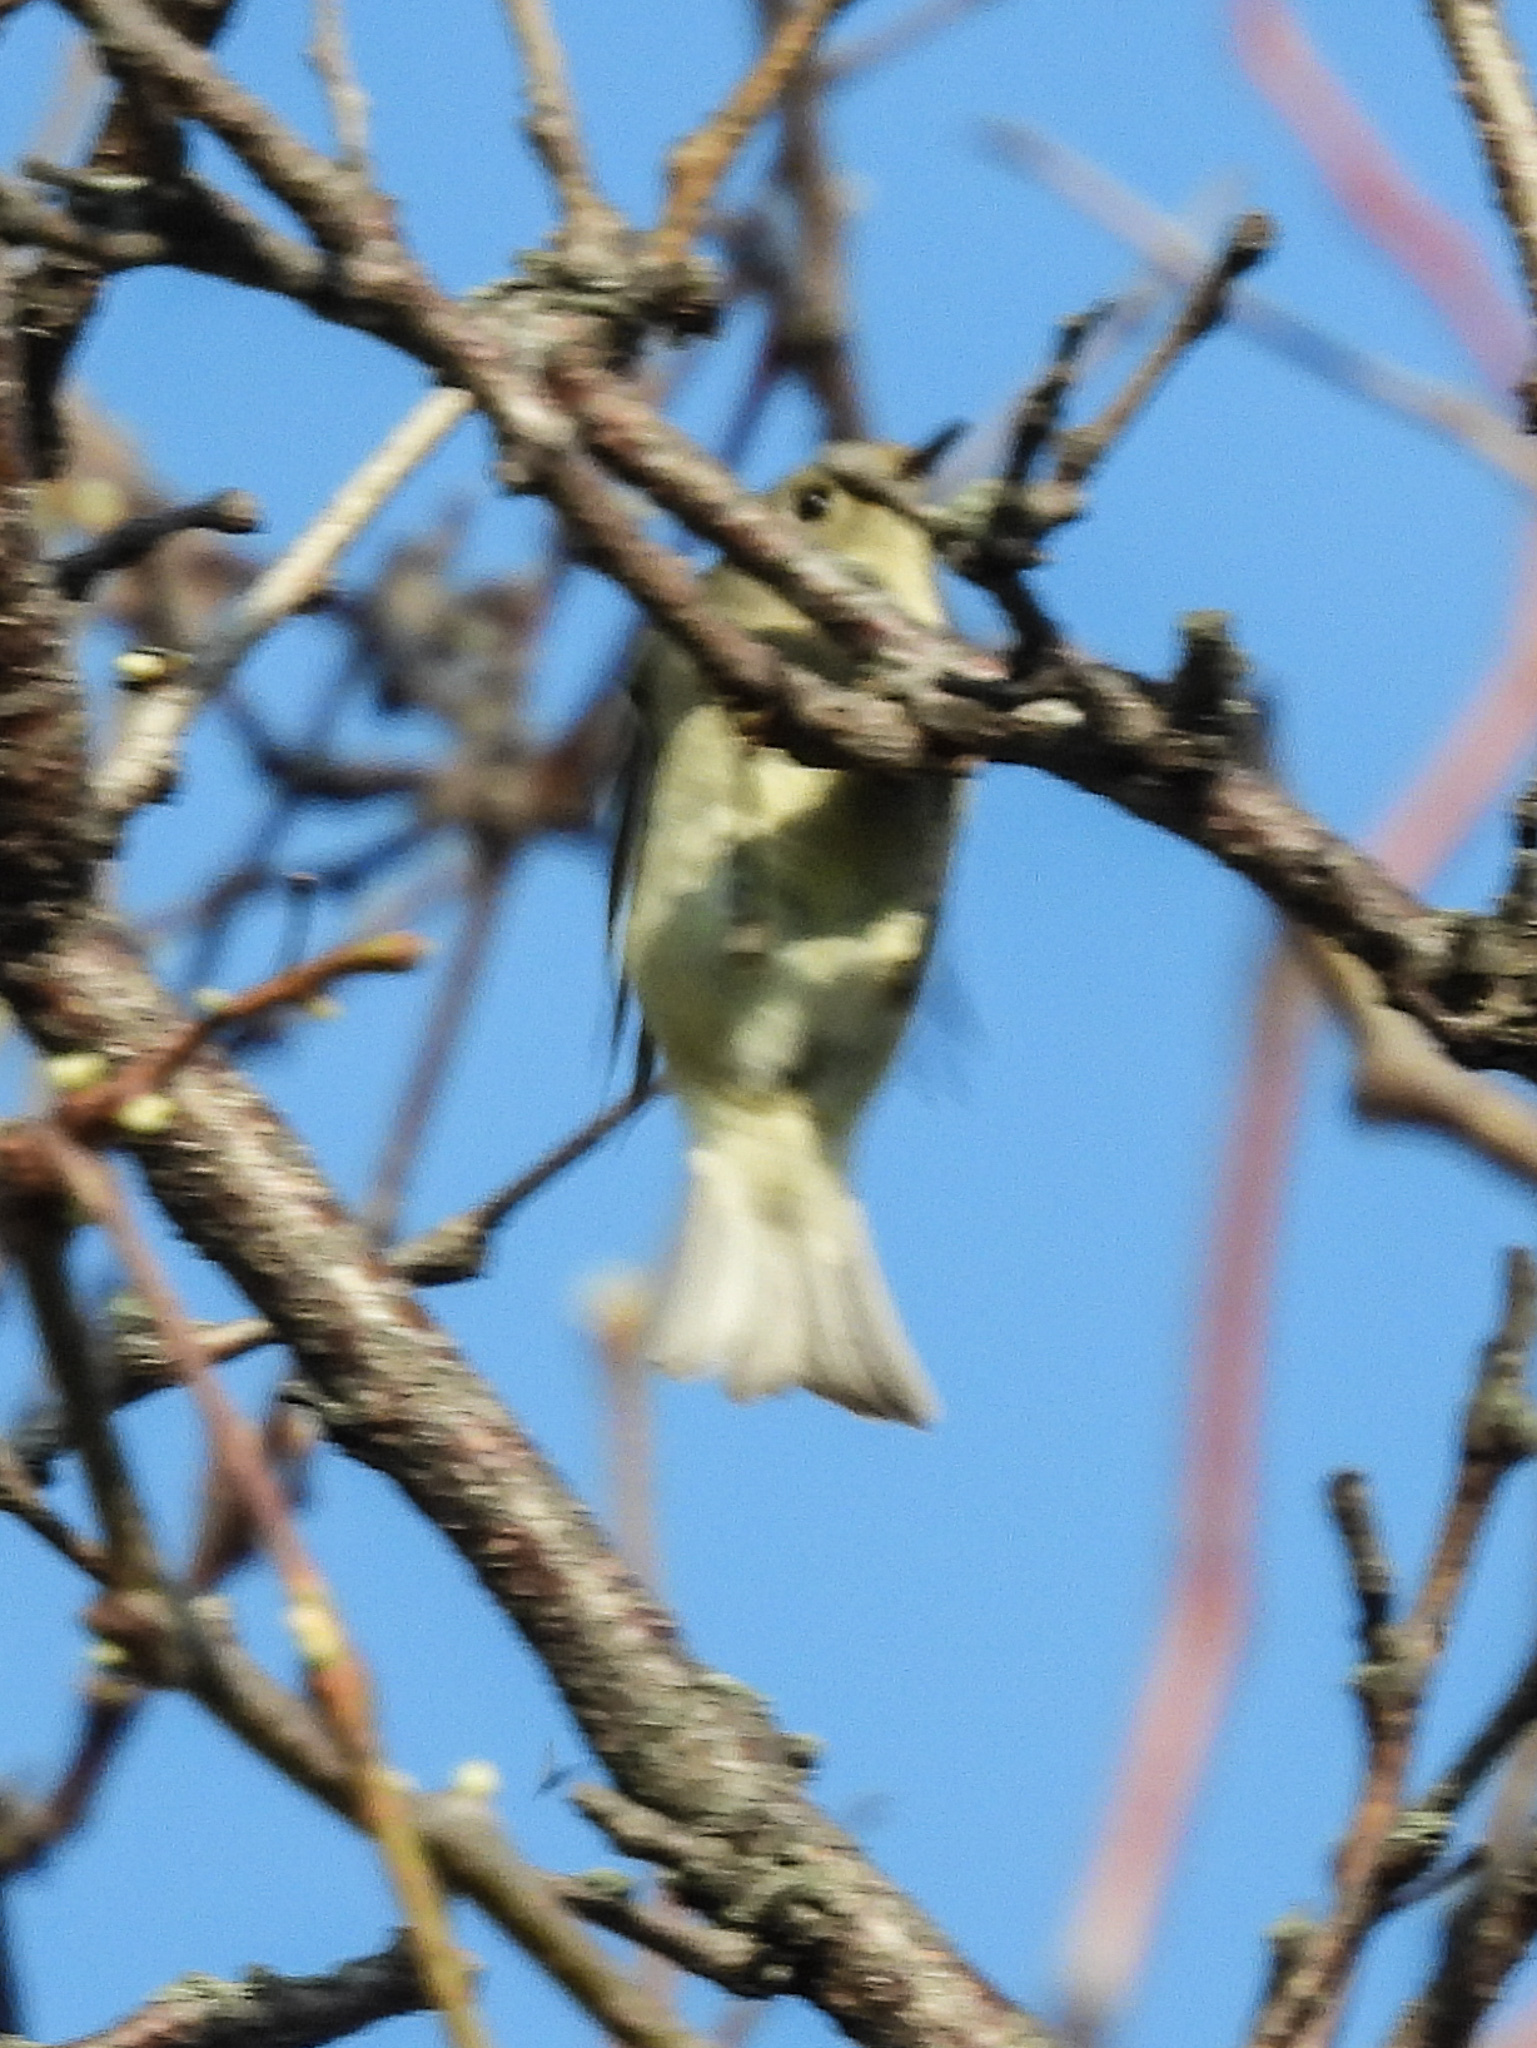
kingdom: Animalia
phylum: Chordata
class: Aves
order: Passeriformes
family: Regulidae
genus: Regulus
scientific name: Regulus calendula
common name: Ruby-crowned kinglet
